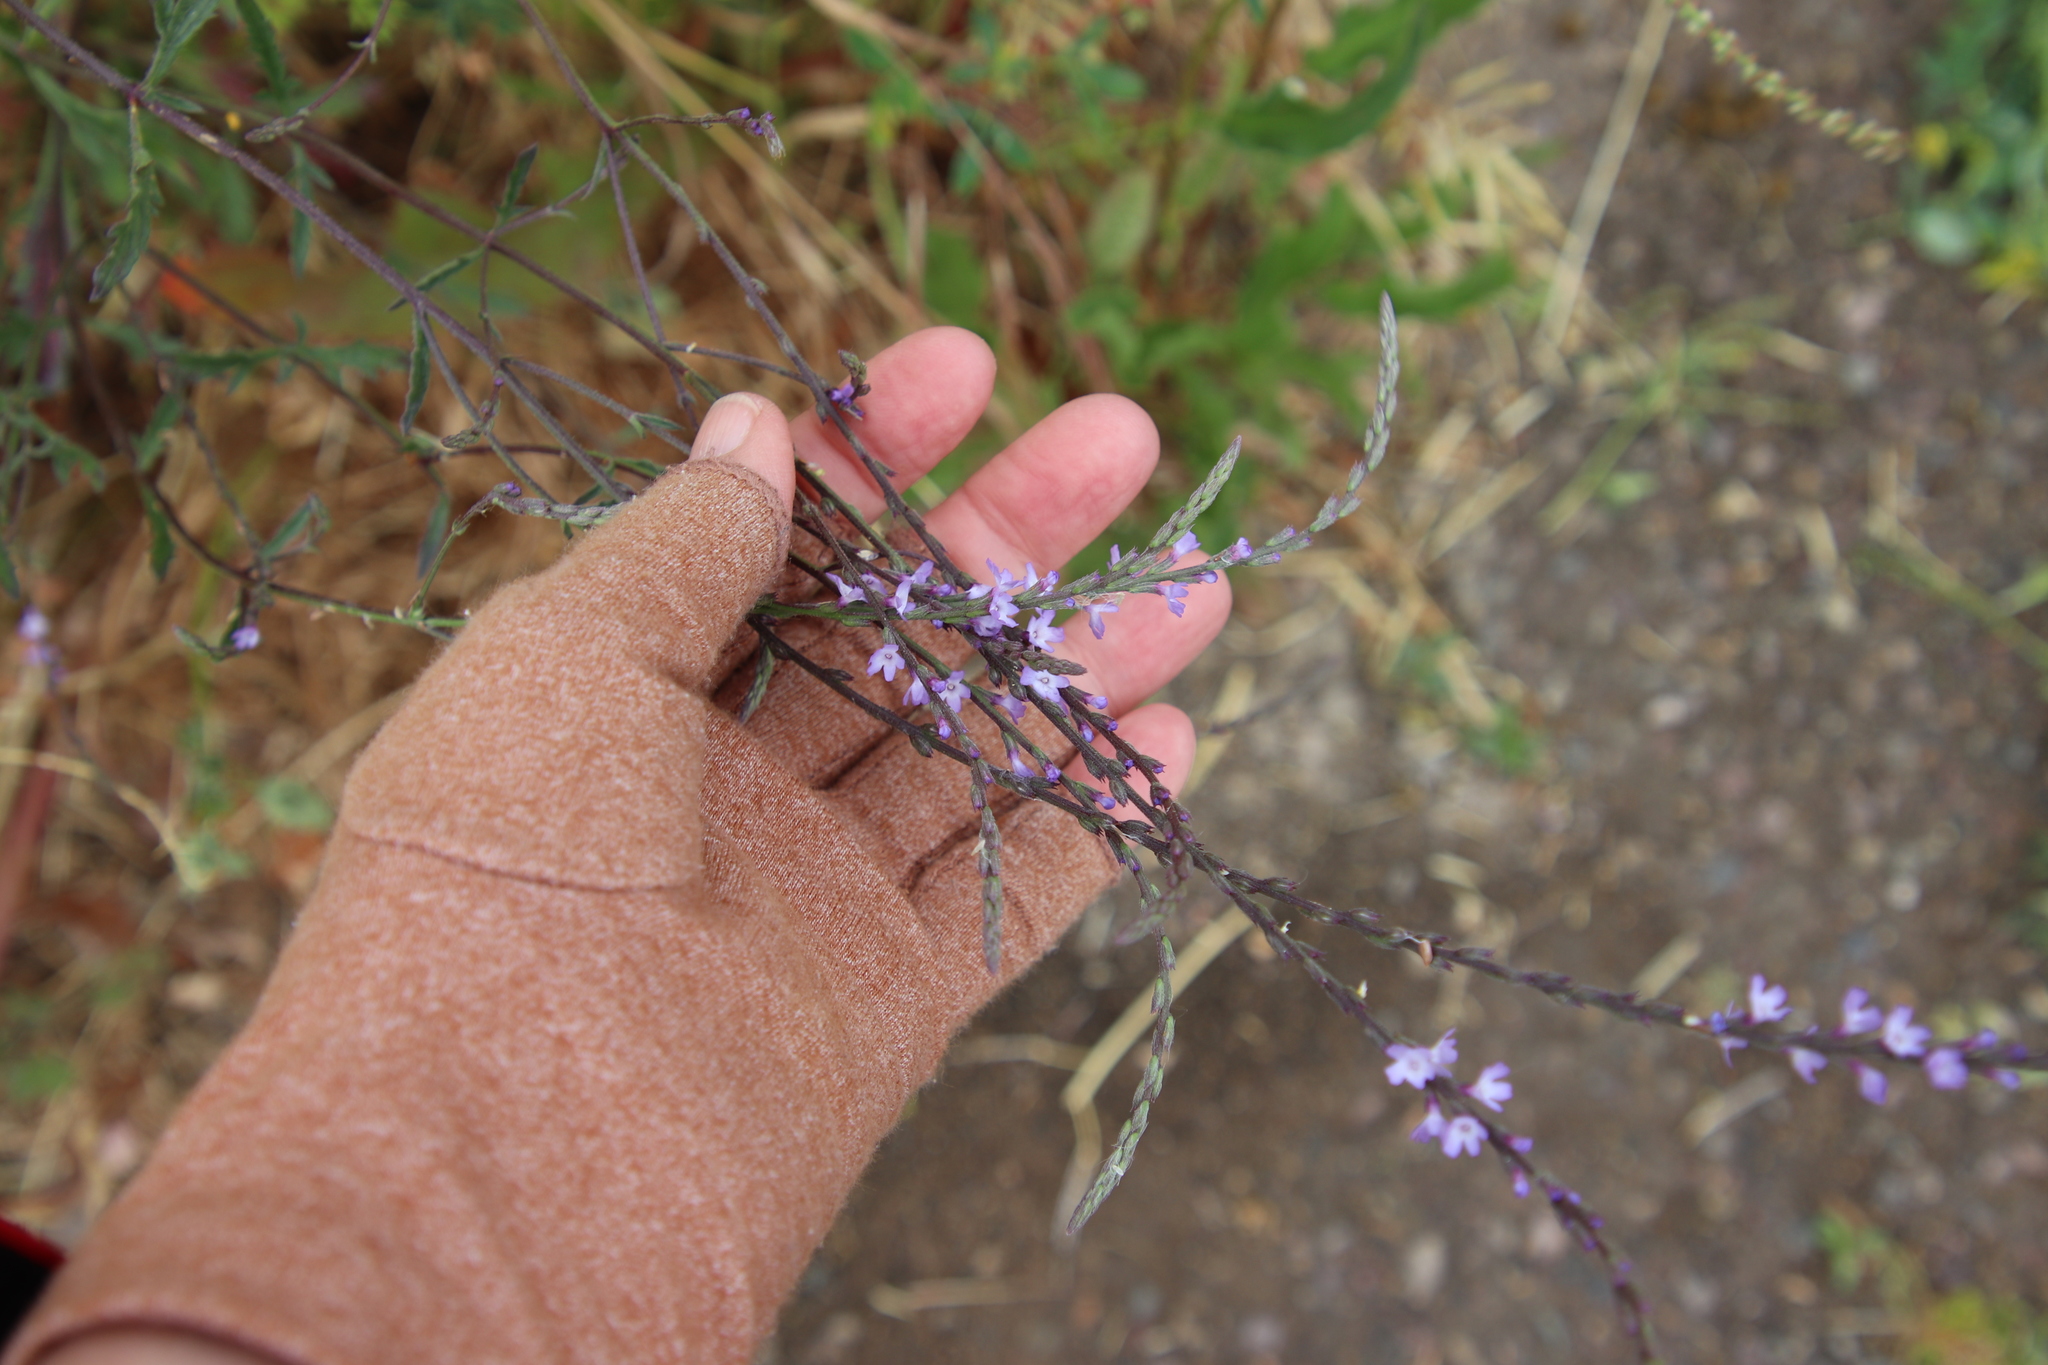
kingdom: Plantae
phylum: Tracheophyta
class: Magnoliopsida
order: Lamiales
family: Verbenaceae
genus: Verbena
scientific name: Verbena menthifolia
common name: Mint-leaf vervain
